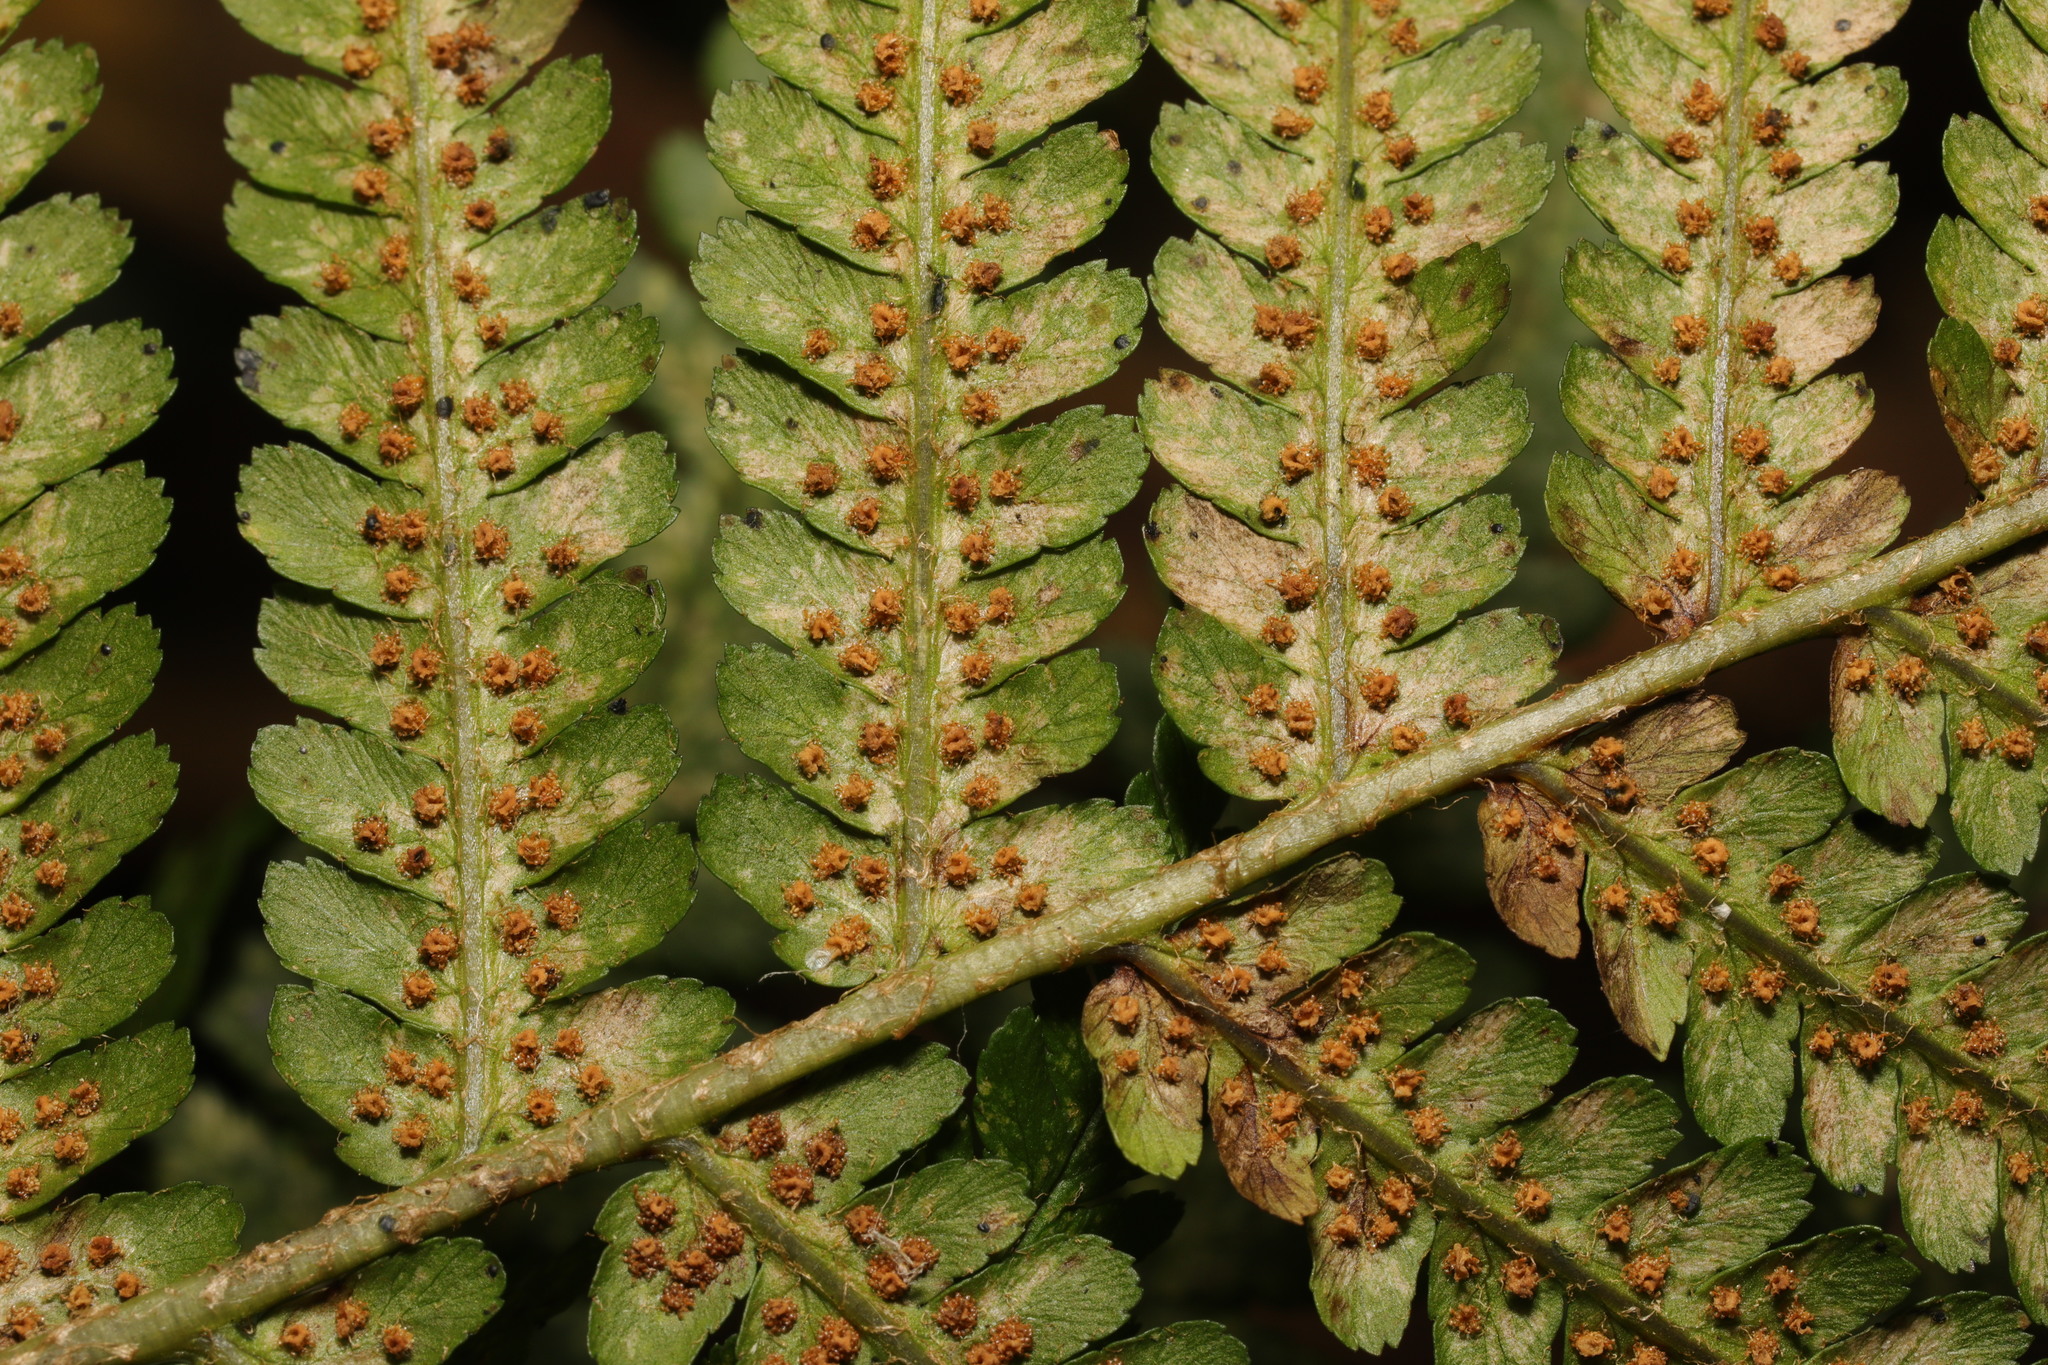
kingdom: Plantae
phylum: Tracheophyta
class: Polypodiopsida
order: Polypodiales
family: Dryopteridaceae
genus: Dryopteris
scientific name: Dryopteris filix-mas
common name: Male fern
